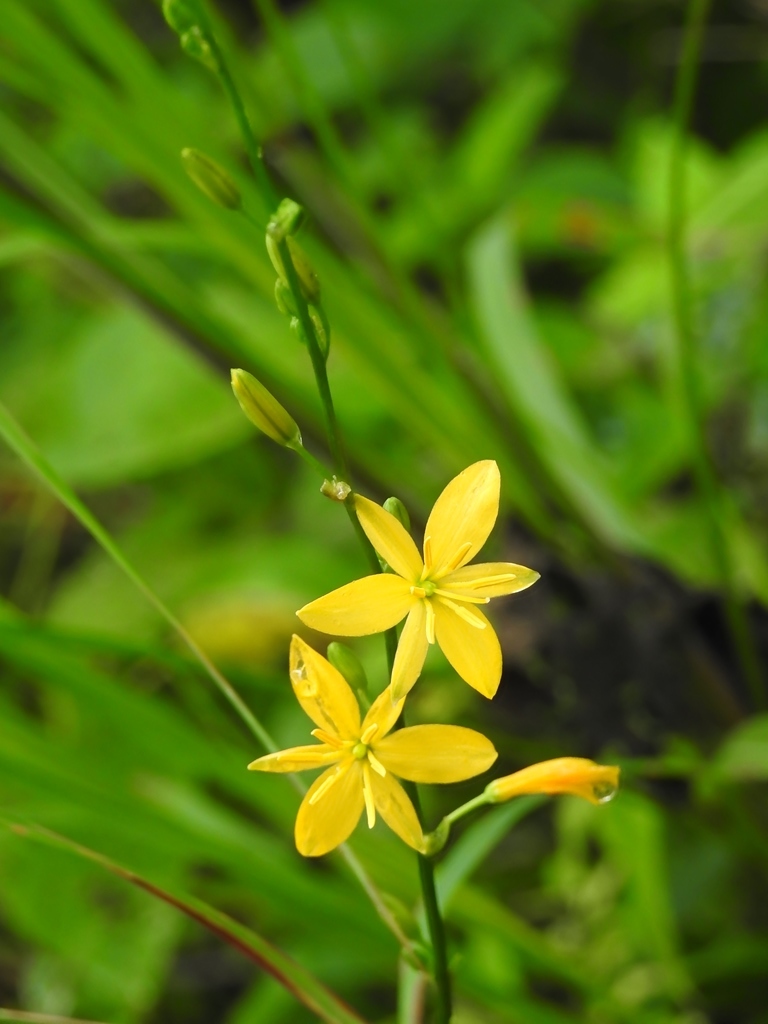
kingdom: Plantae
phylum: Tracheophyta
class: Liliopsida
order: Asparagales
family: Asparagaceae
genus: Echeandia
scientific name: Echeandia breedlovei
